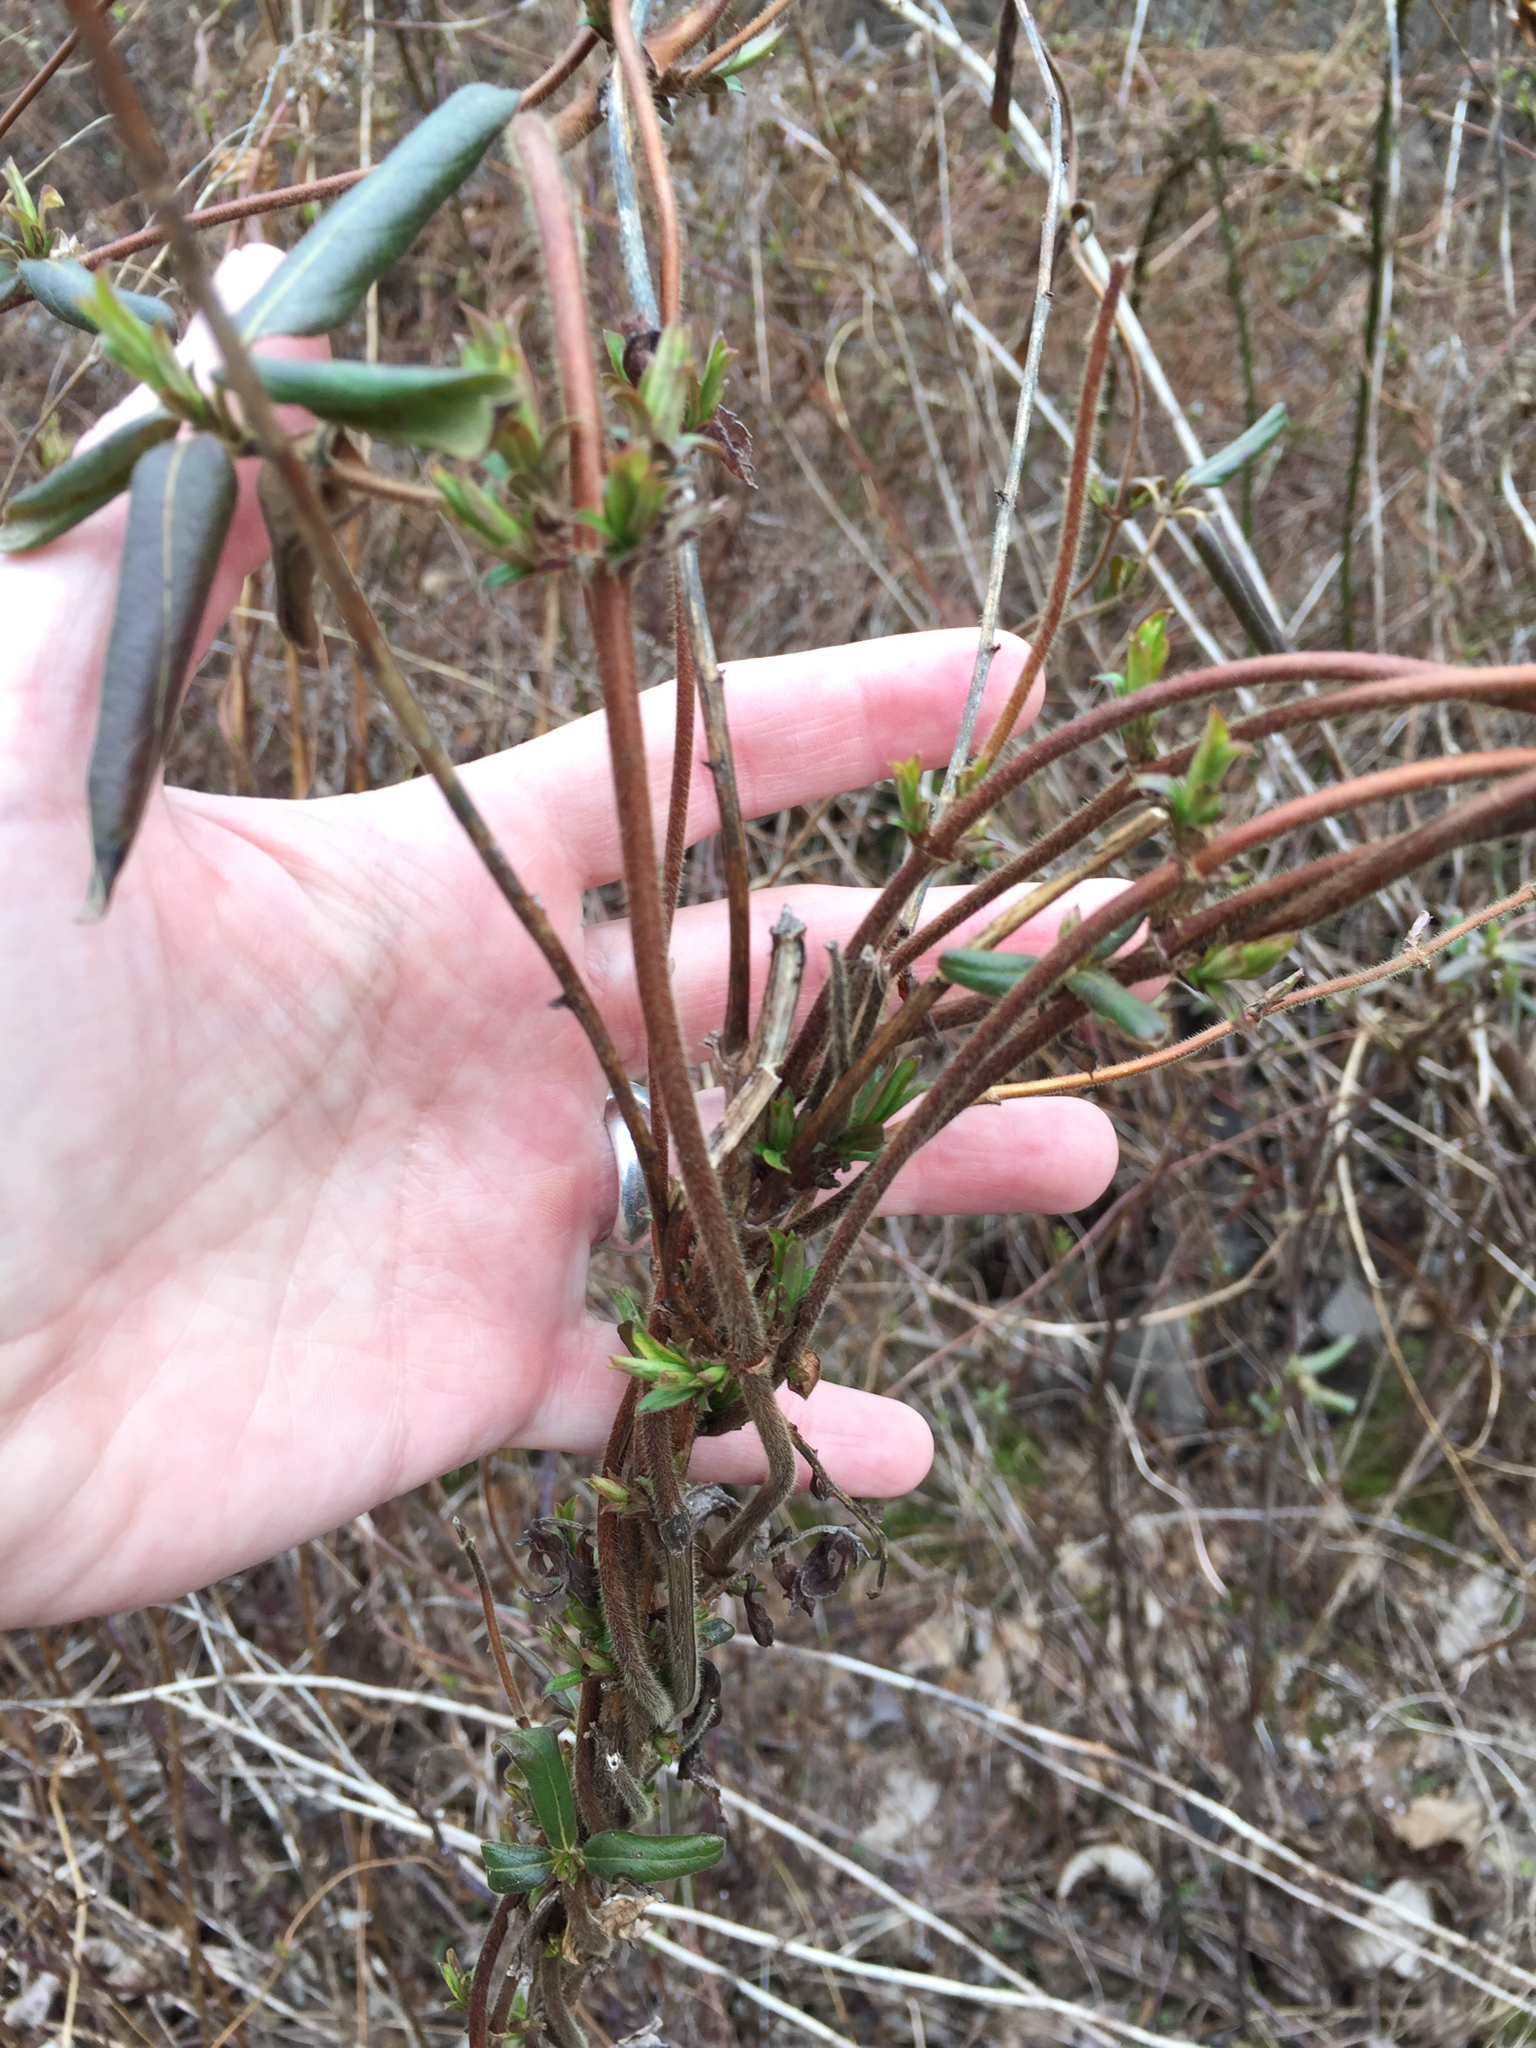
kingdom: Plantae
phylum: Tracheophyta
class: Magnoliopsida
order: Dipsacales
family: Caprifoliaceae
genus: Lonicera
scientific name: Lonicera japonica
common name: Japanese honeysuckle
